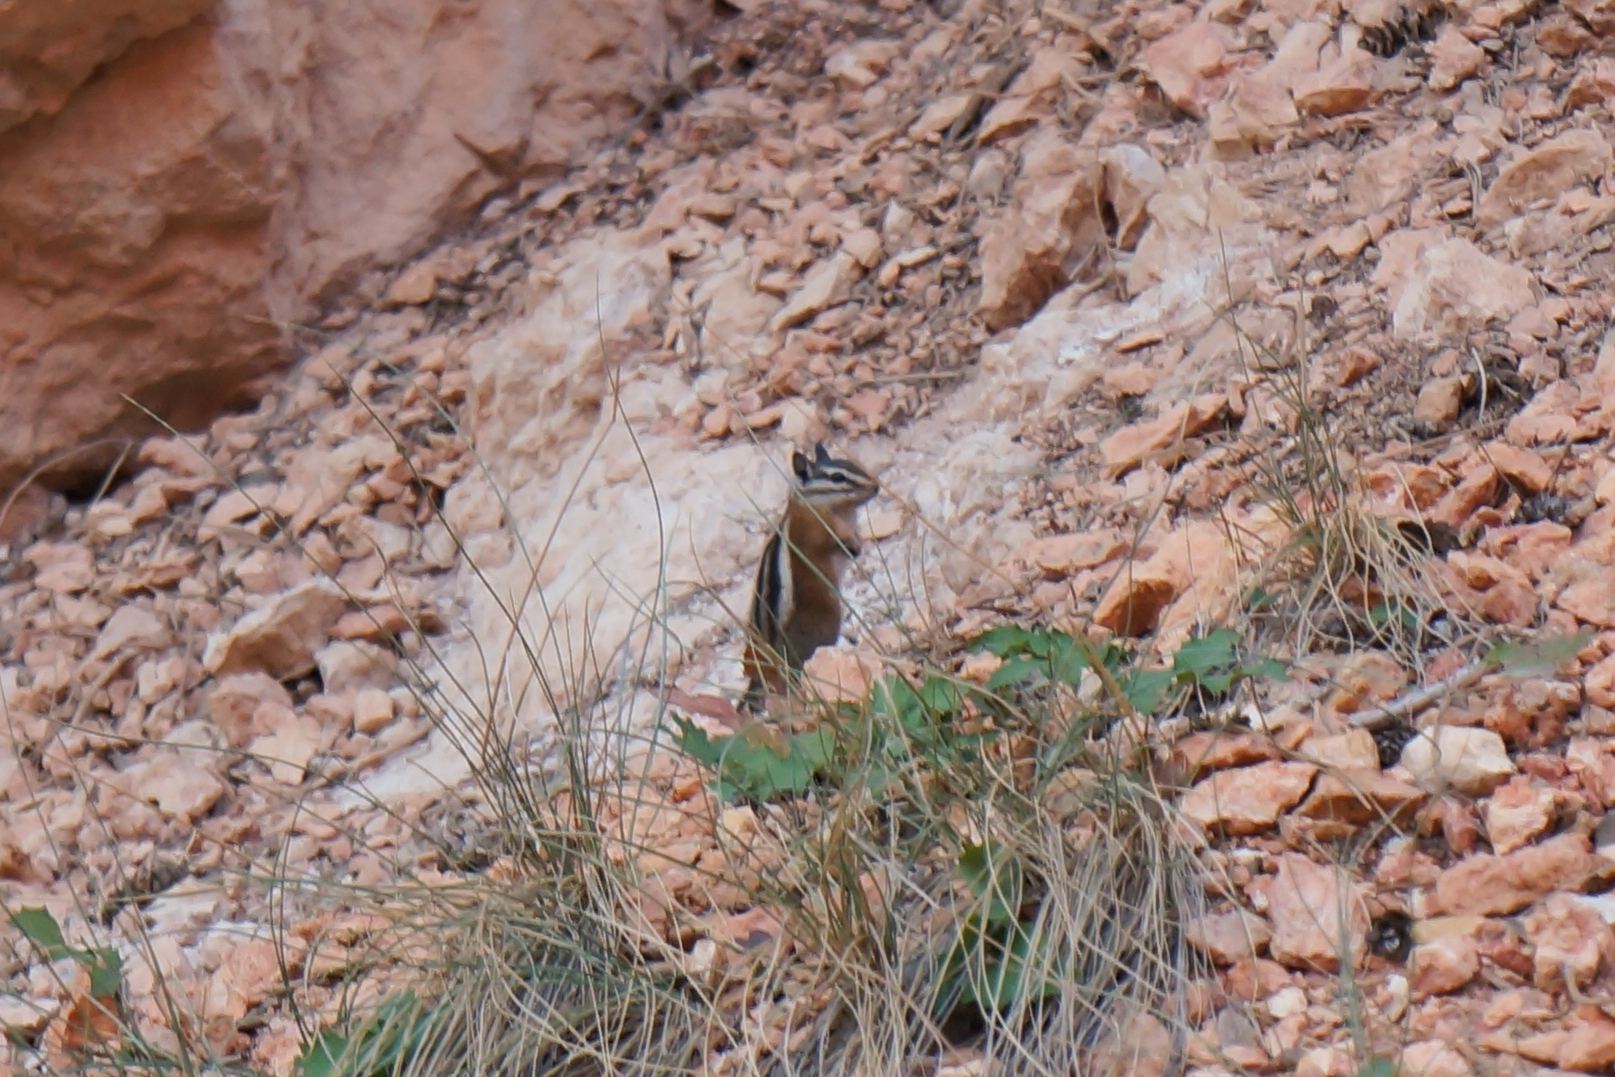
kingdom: Animalia
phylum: Chordata
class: Mammalia
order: Rodentia
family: Sciuridae
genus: Tamias
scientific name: Tamias umbrinus
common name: Uinta chipmunk
